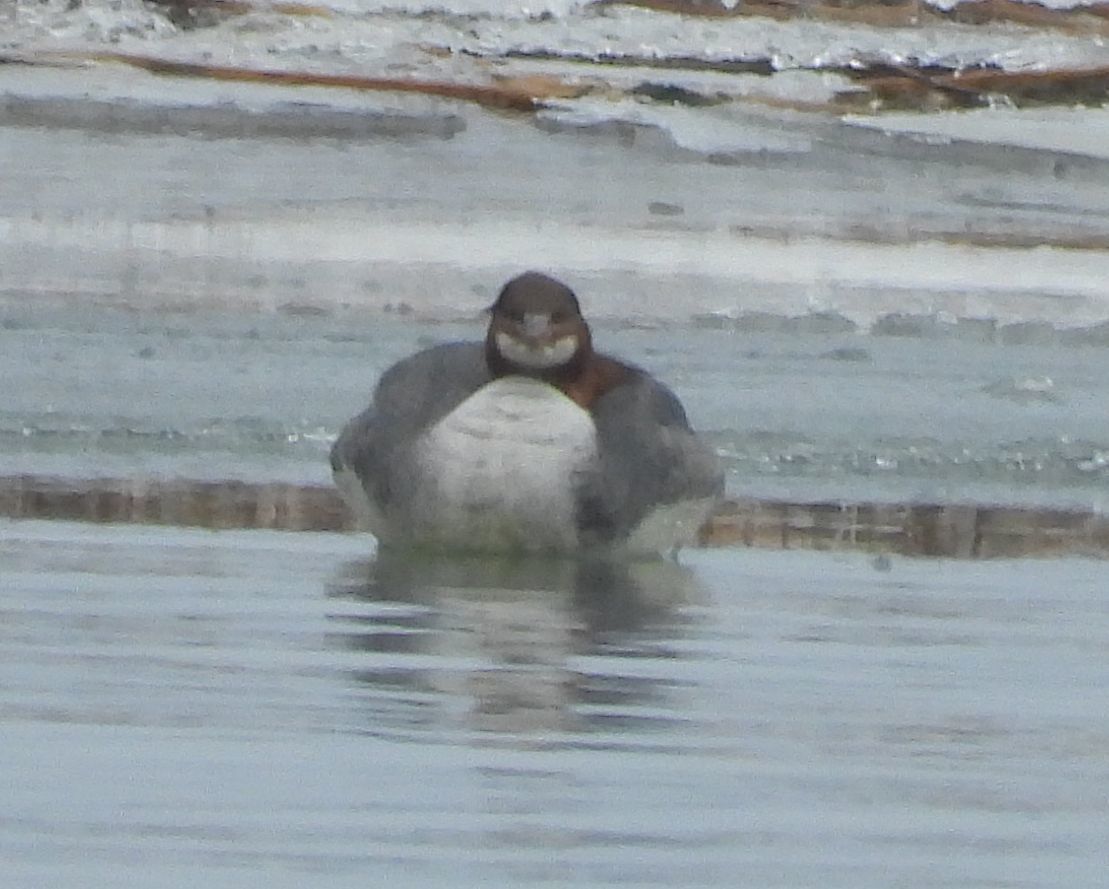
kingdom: Animalia
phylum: Chordata
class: Aves
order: Anseriformes
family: Anatidae
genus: Mergus
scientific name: Mergus merganser
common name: Common merganser
